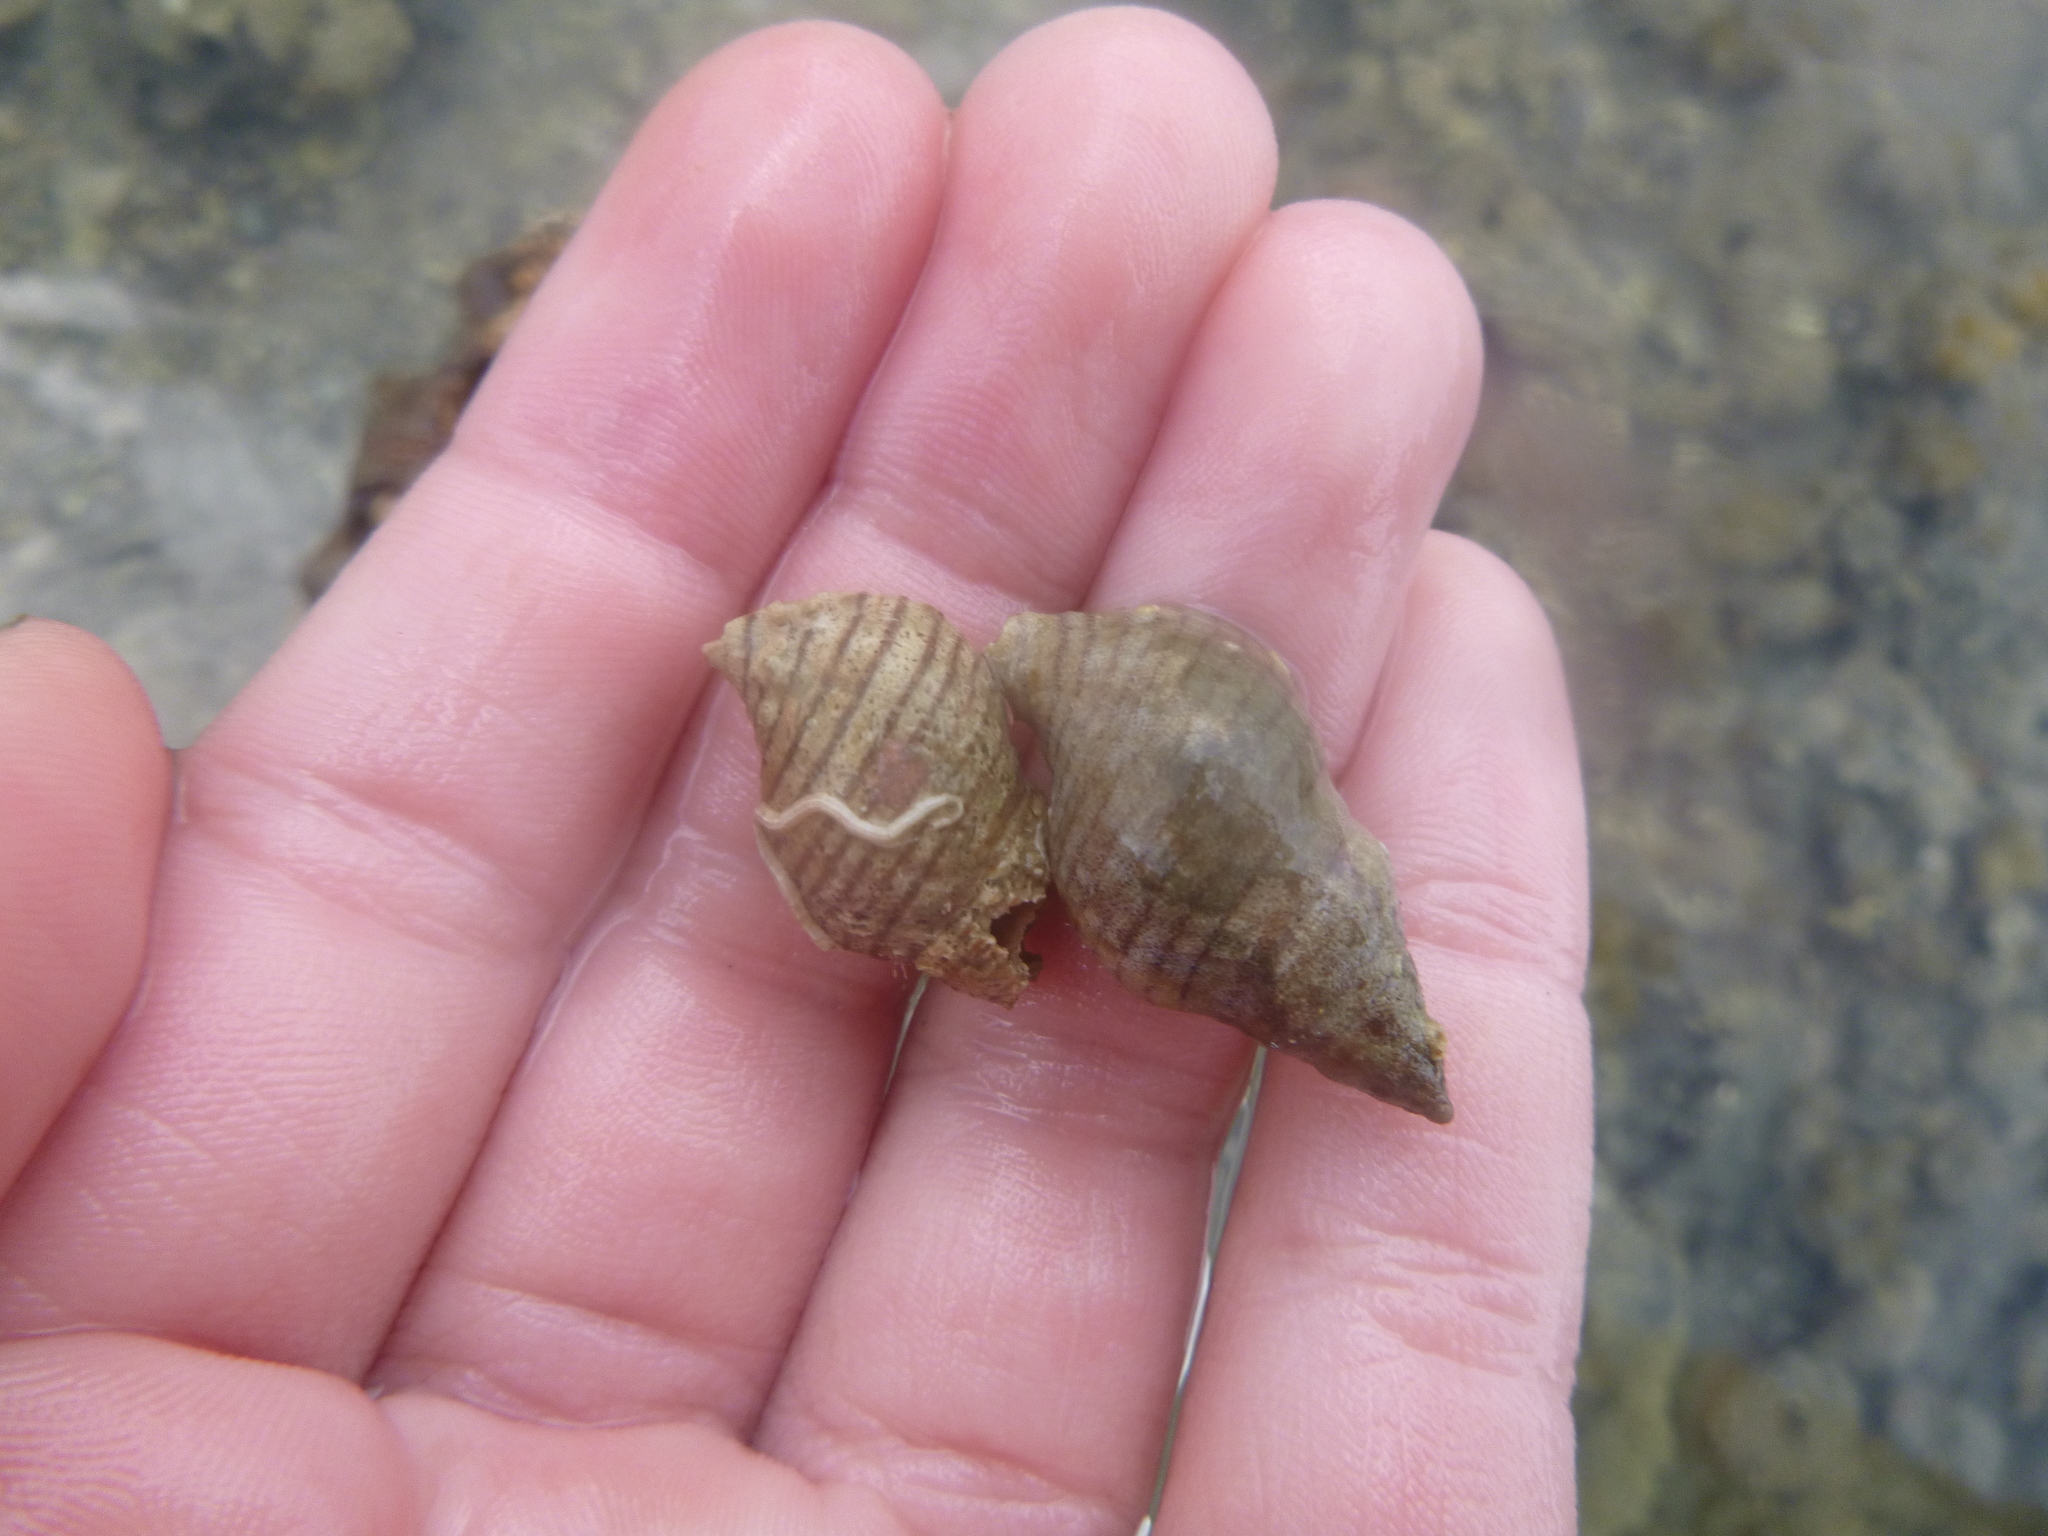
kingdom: Animalia
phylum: Mollusca
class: Gastropoda
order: Neogastropoda
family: Tudiclidae
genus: Buccinulum
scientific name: Buccinulum linea
